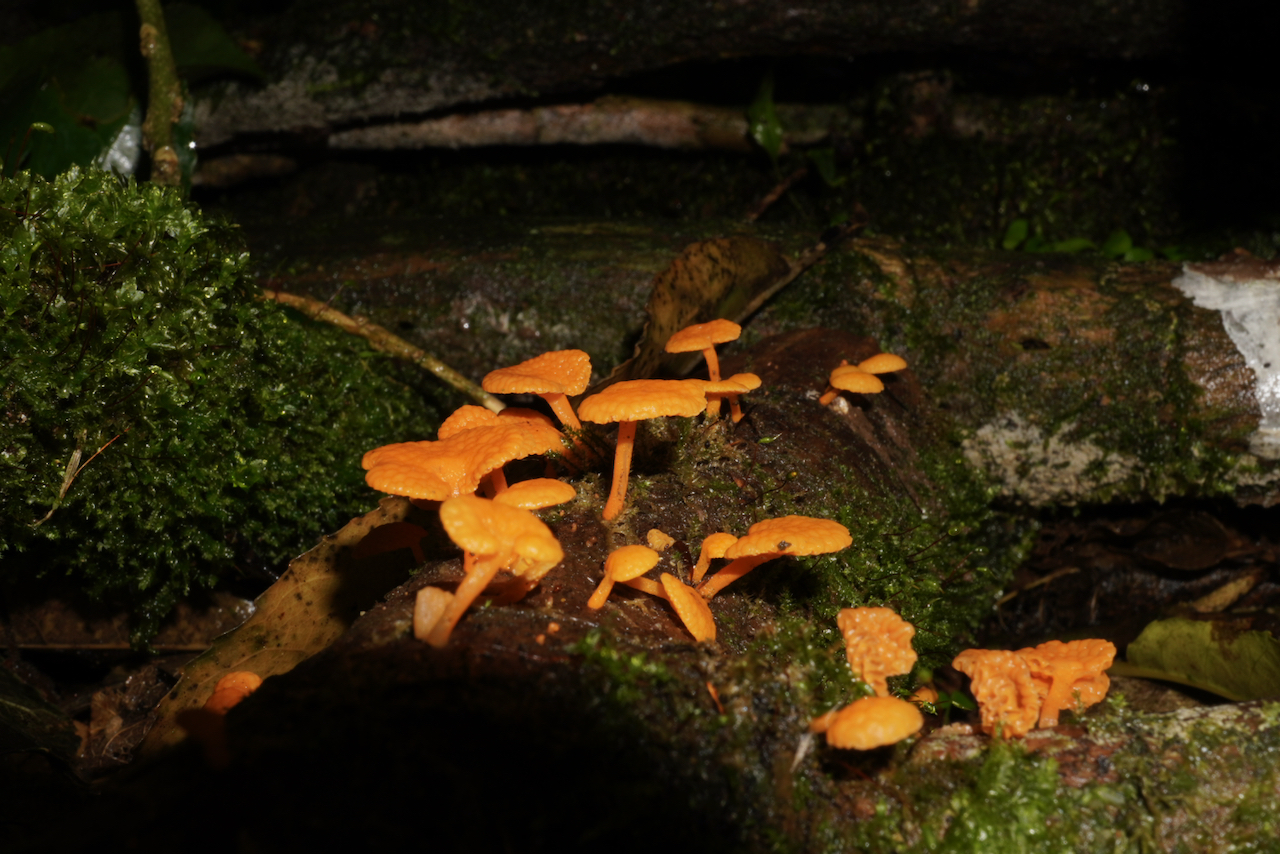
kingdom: Fungi
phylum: Basidiomycota
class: Agaricomycetes
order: Agaricales
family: Mycenaceae
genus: Favolaschia
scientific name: Favolaschia claudopus
